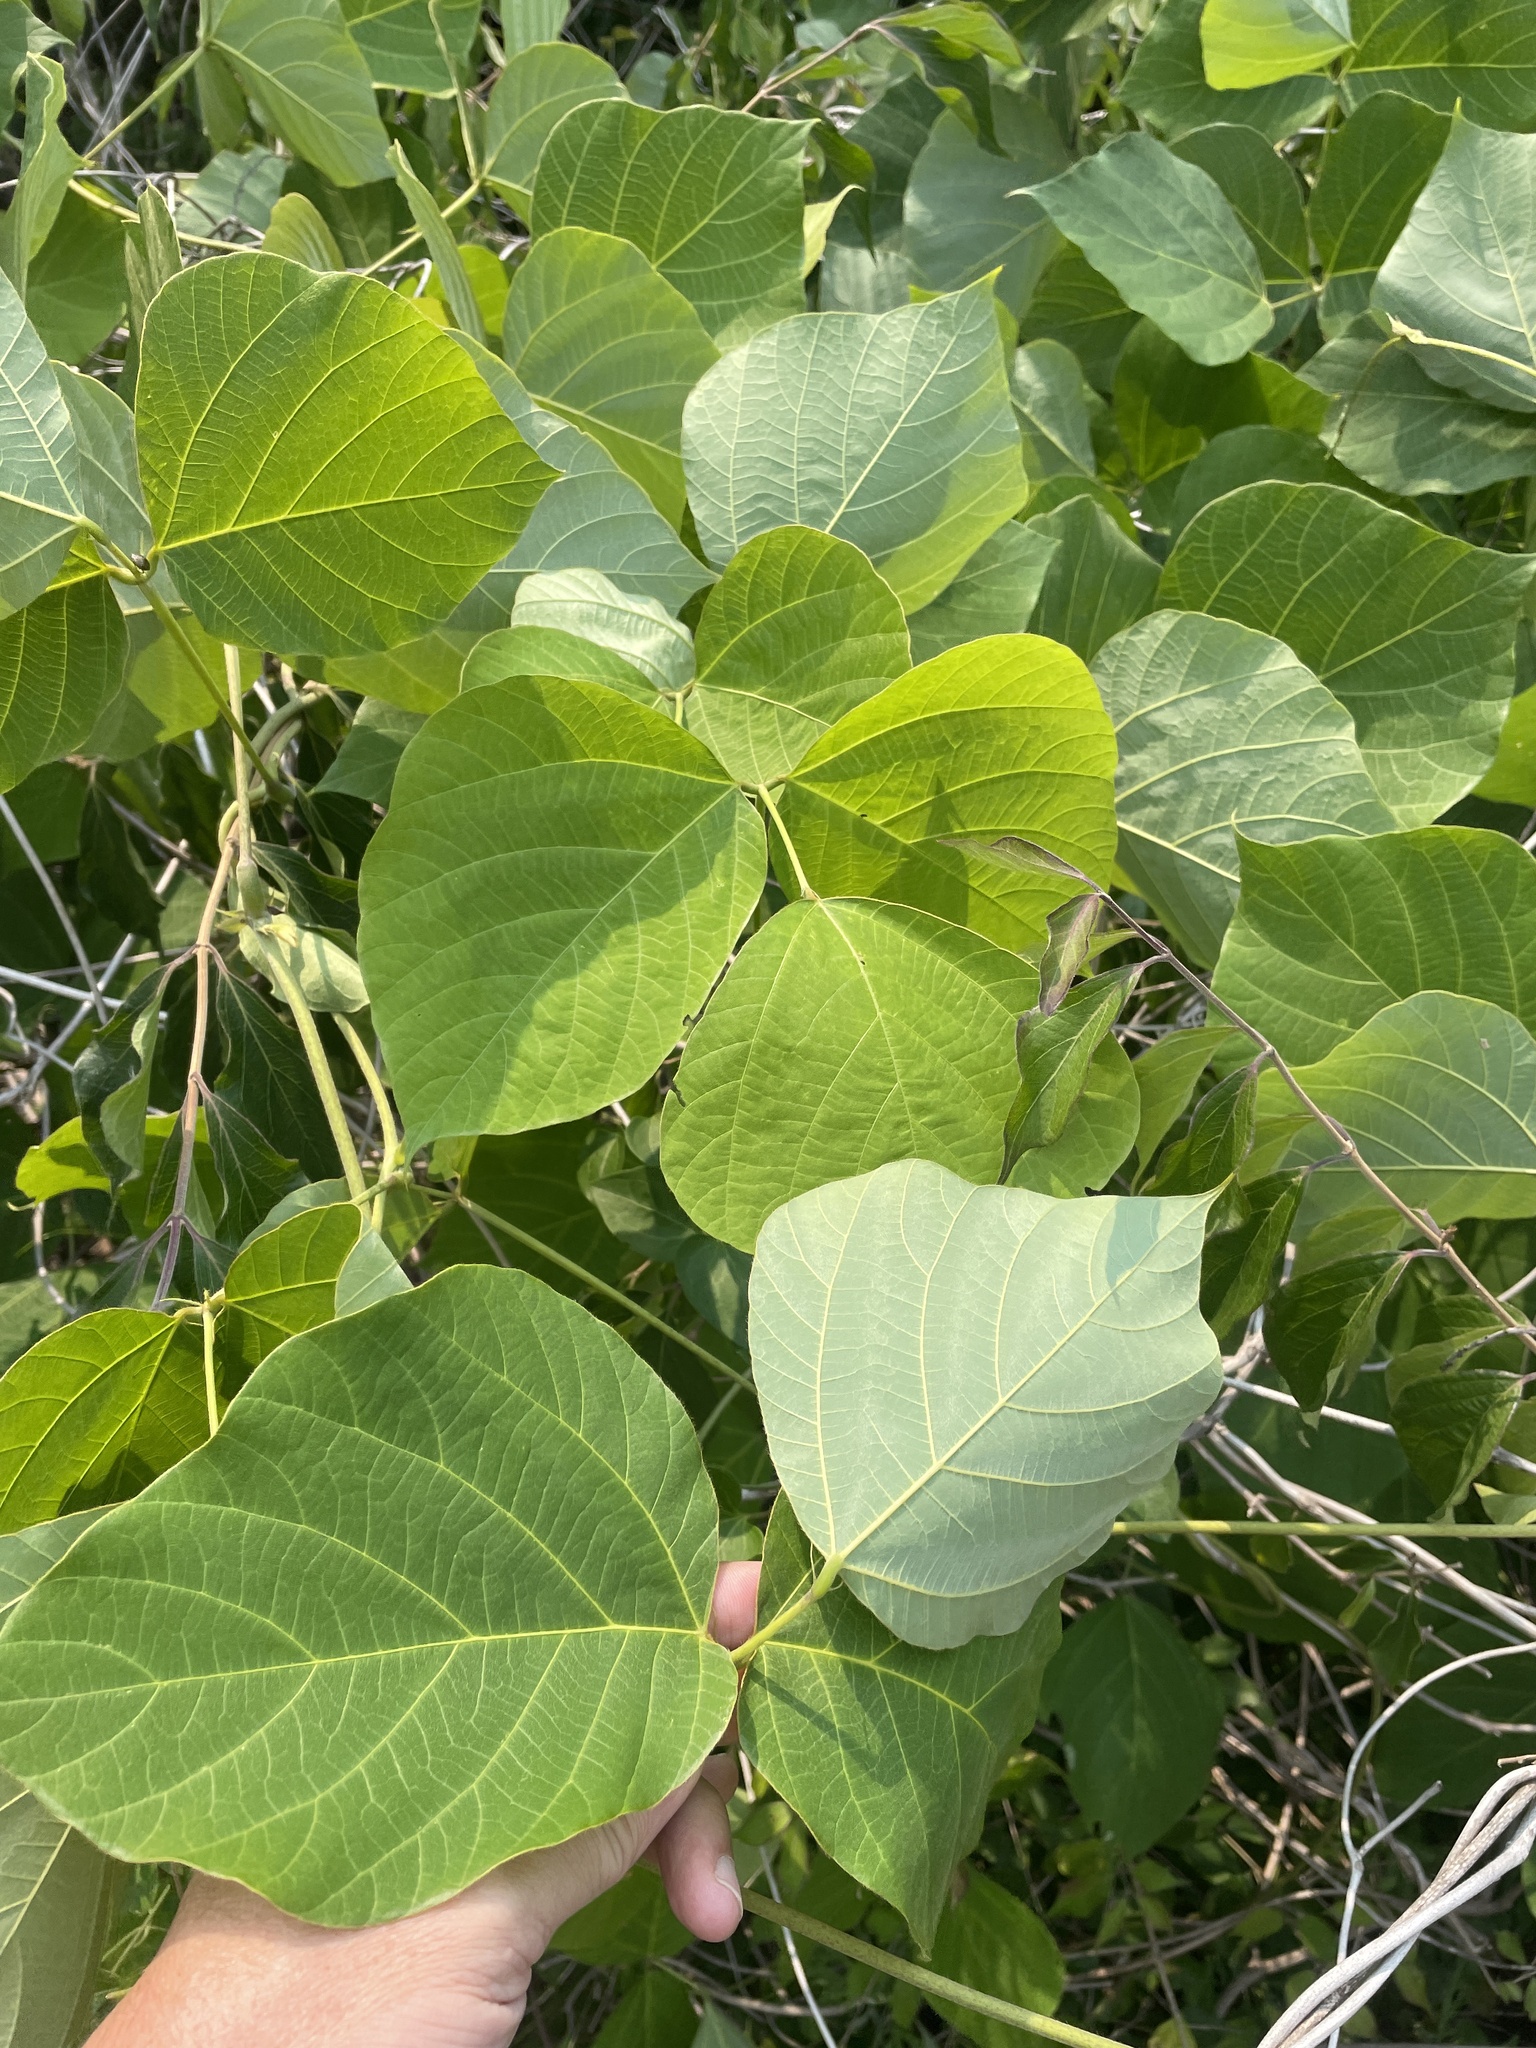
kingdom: Plantae
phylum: Tracheophyta
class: Magnoliopsida
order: Fabales
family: Fabaceae
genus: Pueraria
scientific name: Pueraria montana
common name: Kudzu
